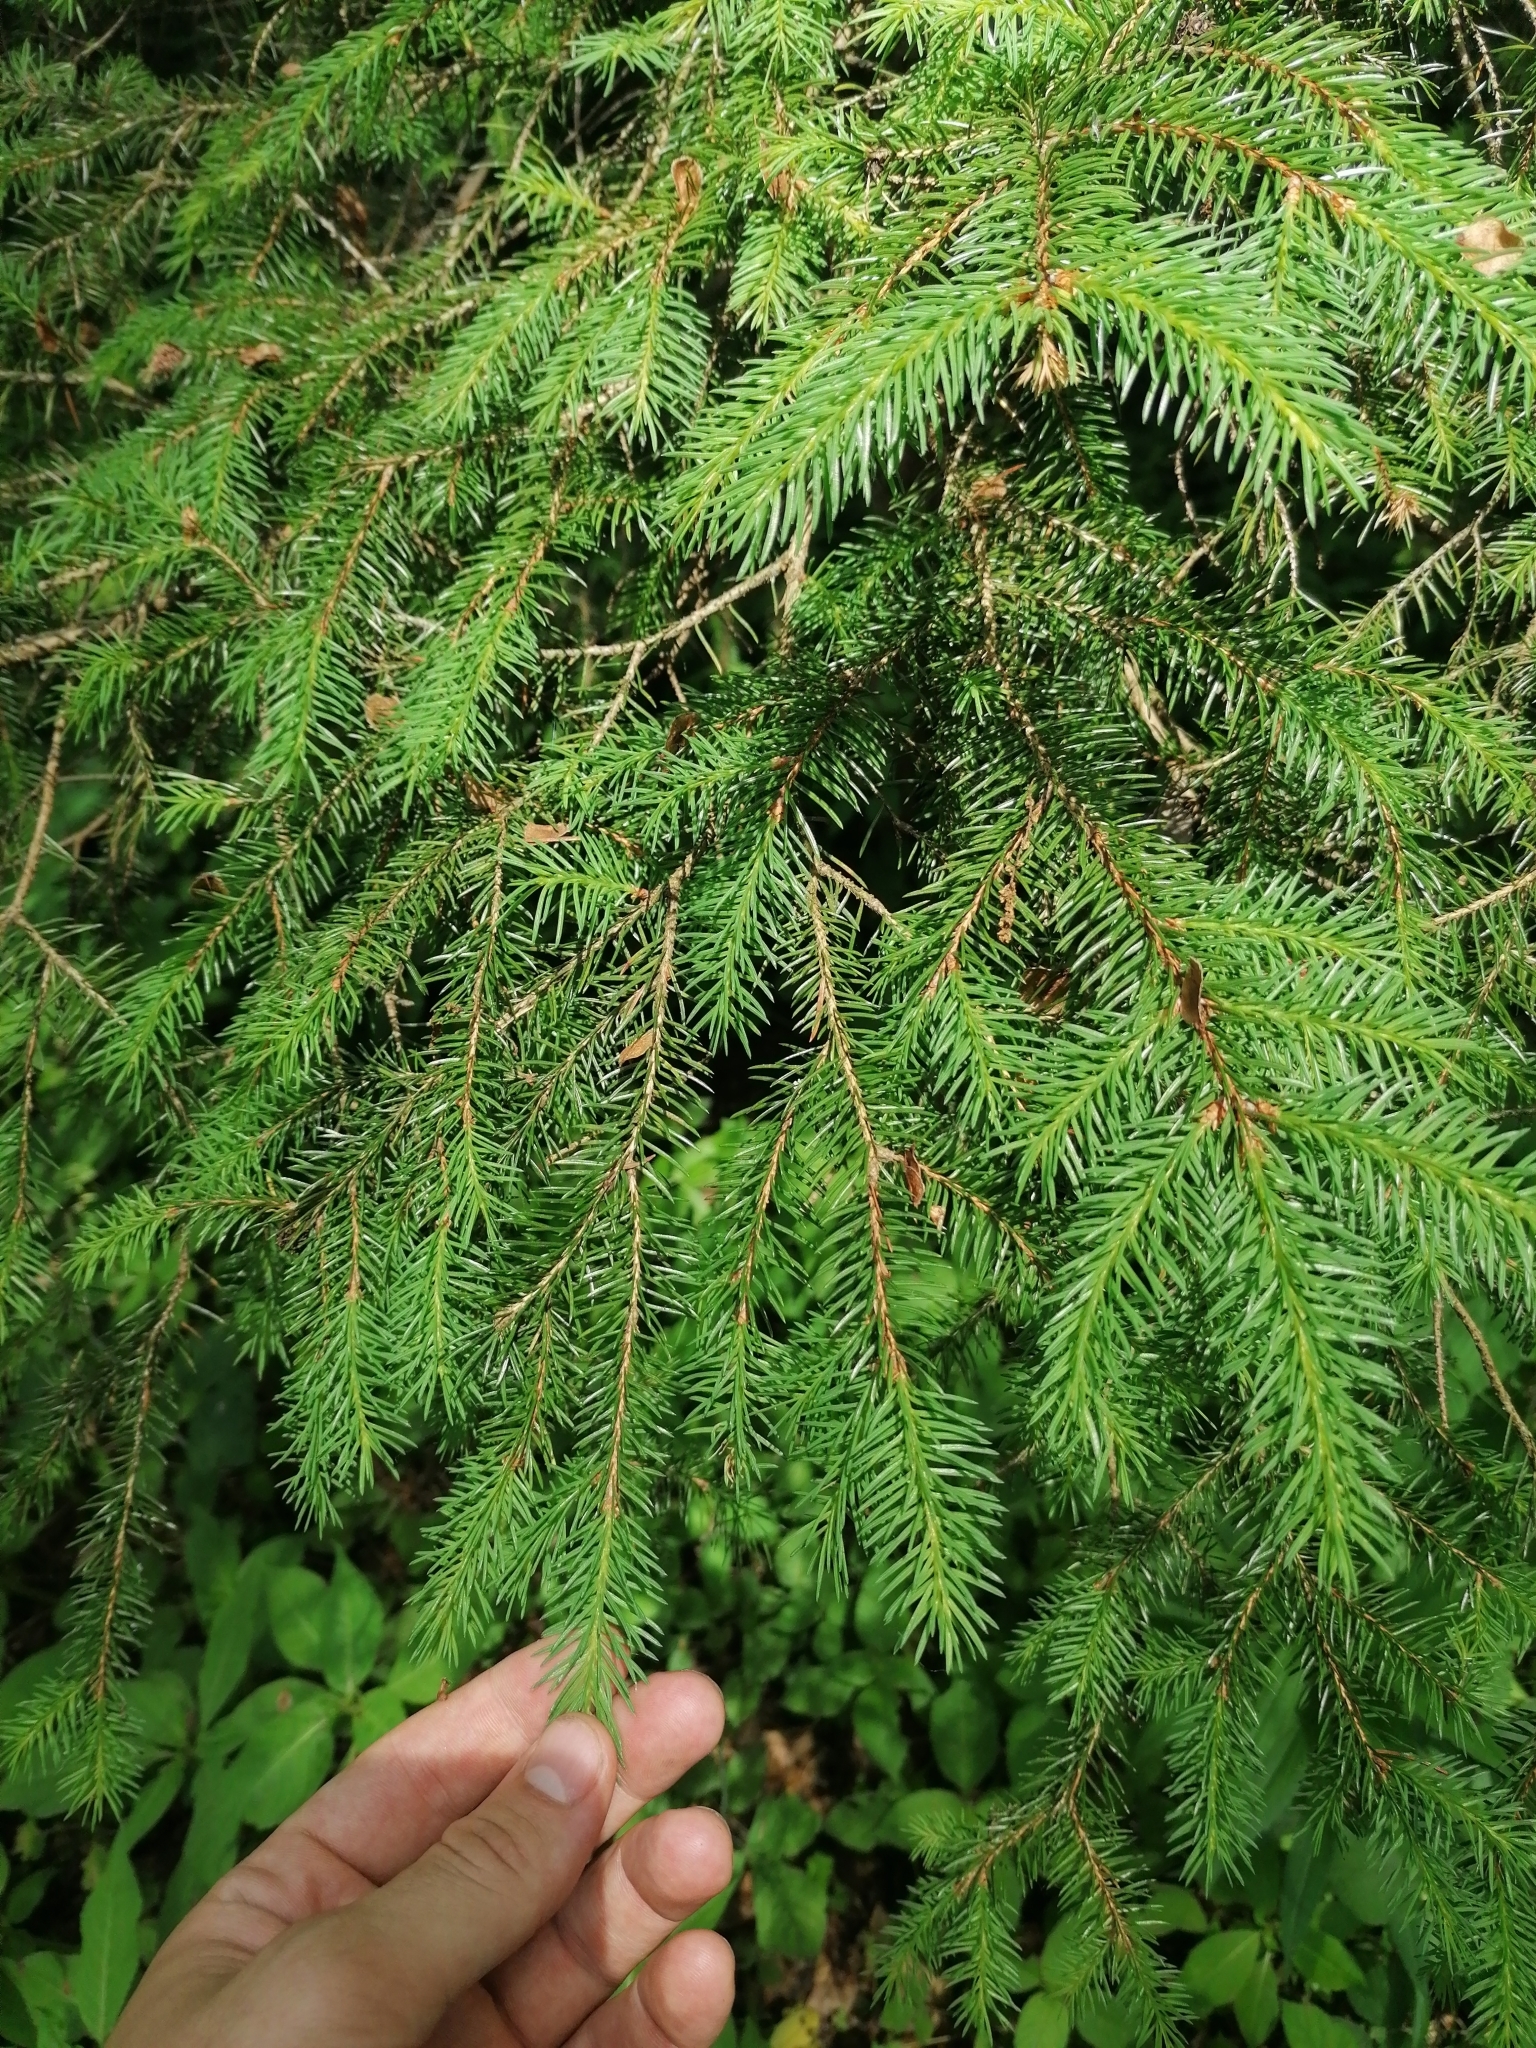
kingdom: Plantae
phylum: Tracheophyta
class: Pinopsida
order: Pinales
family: Pinaceae
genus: Picea
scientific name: Picea abies
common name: Norway spruce
